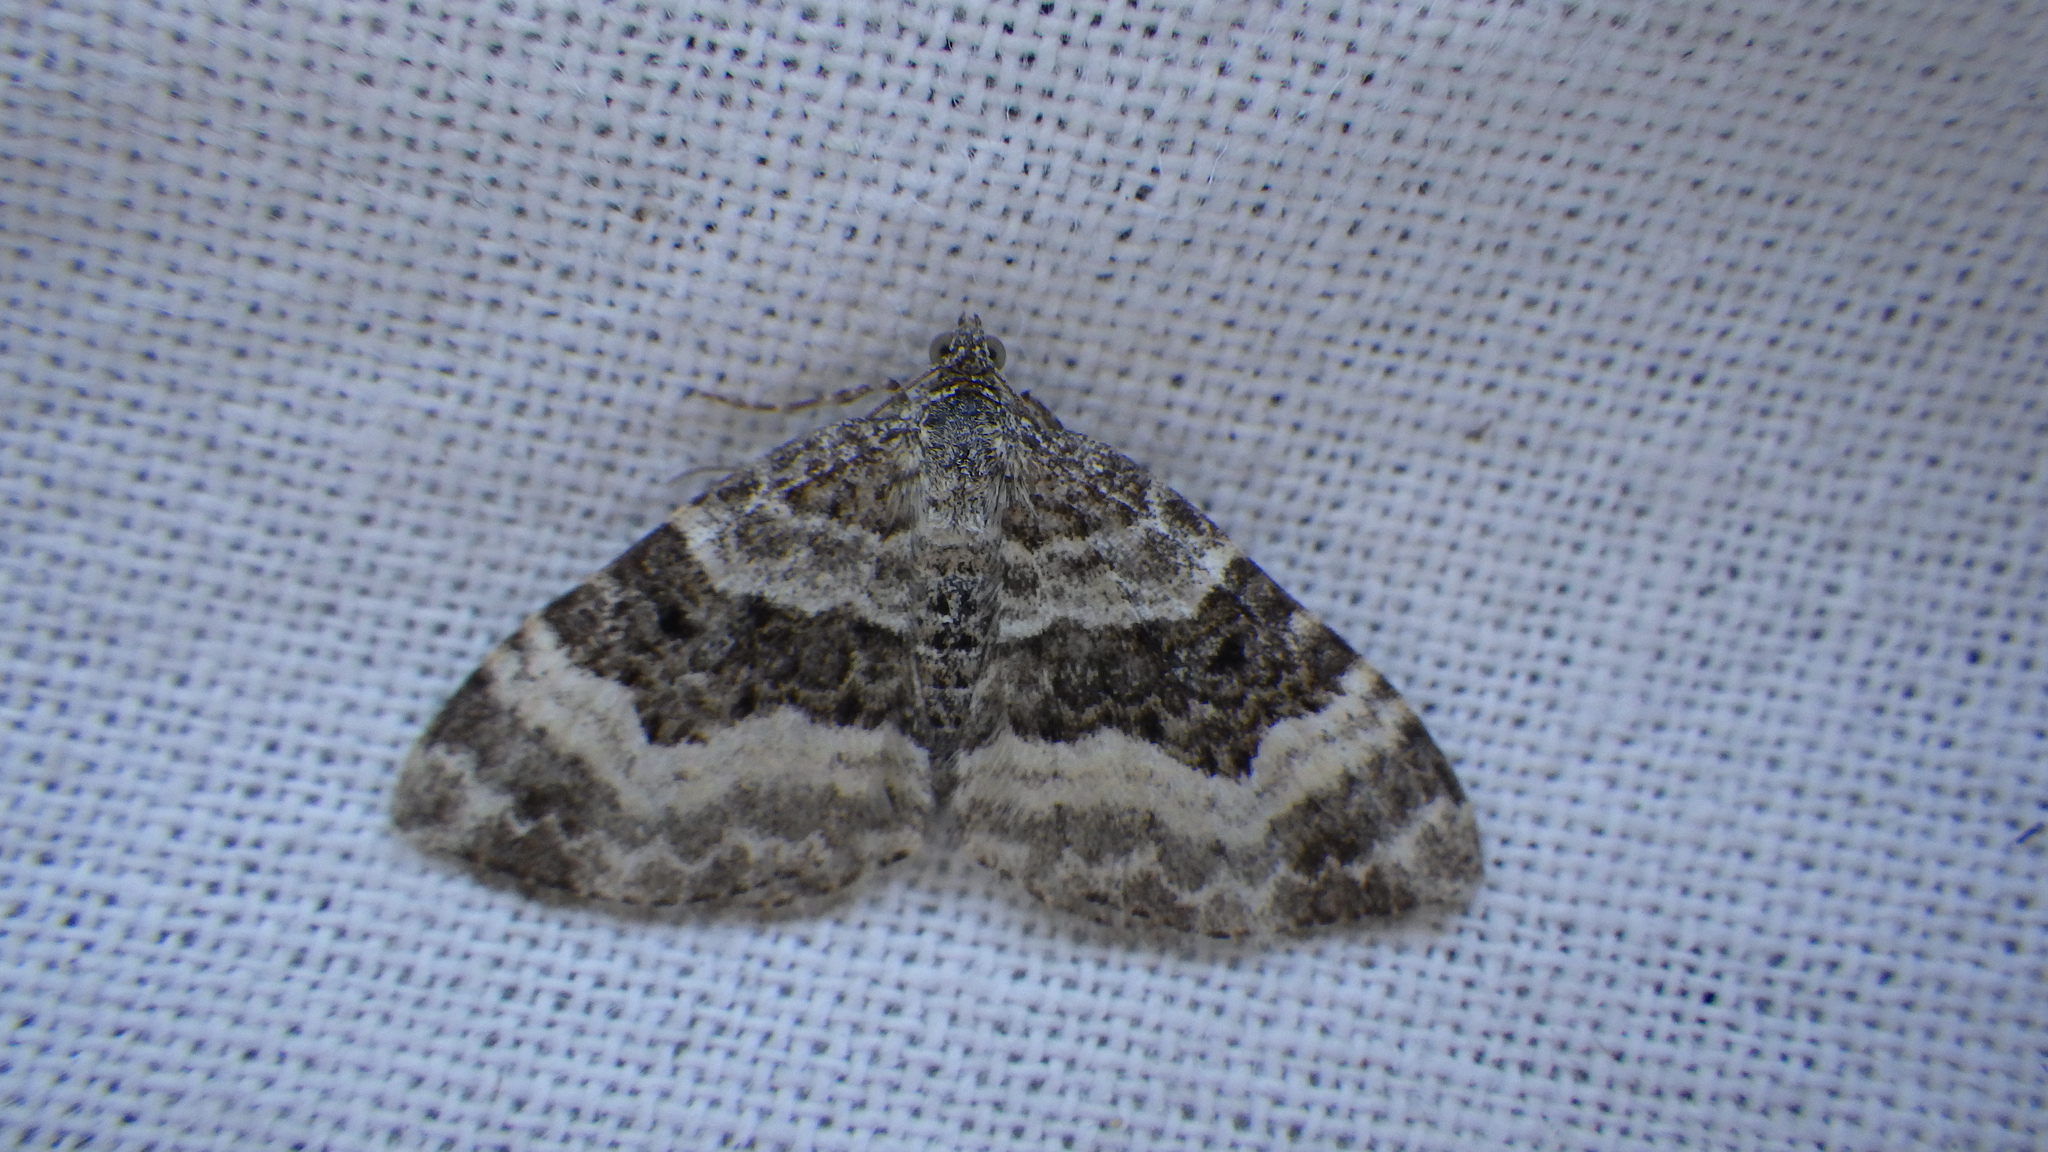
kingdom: Animalia
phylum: Arthropoda
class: Insecta
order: Lepidoptera
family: Geometridae
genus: Epirrhoe
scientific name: Epirrhoe alternata
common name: Common carpet
